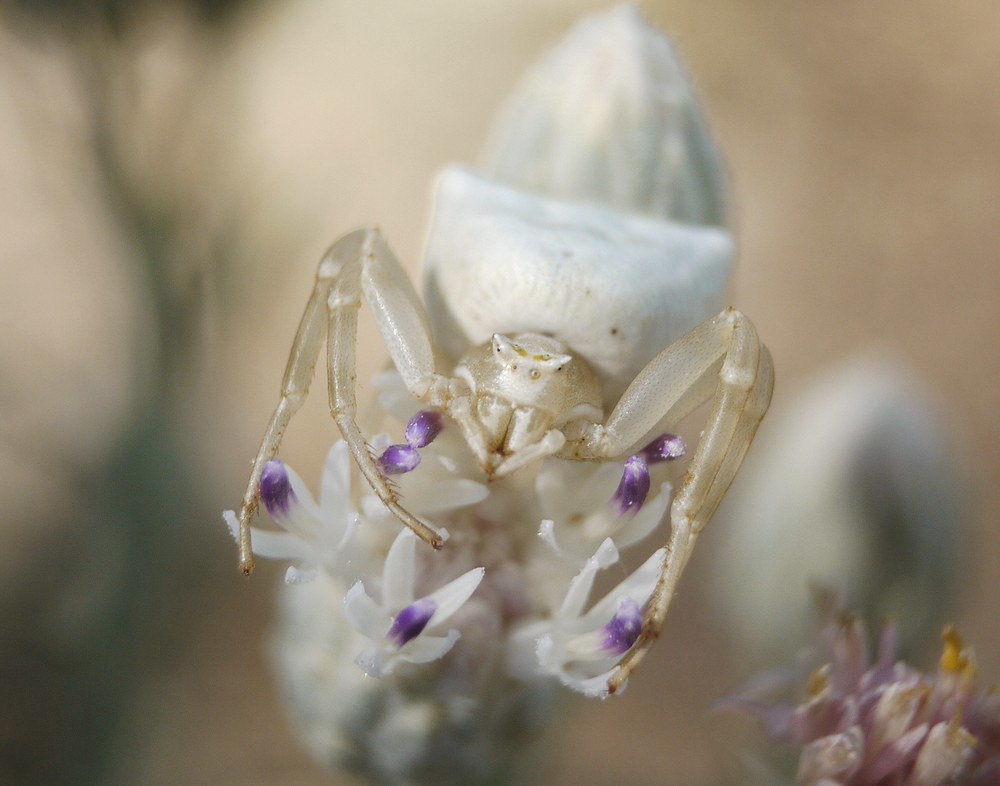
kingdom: Animalia
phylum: Arthropoda
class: Arachnida
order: Araneae
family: Thomisidae
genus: Thomisus
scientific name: Thomisus onustus
